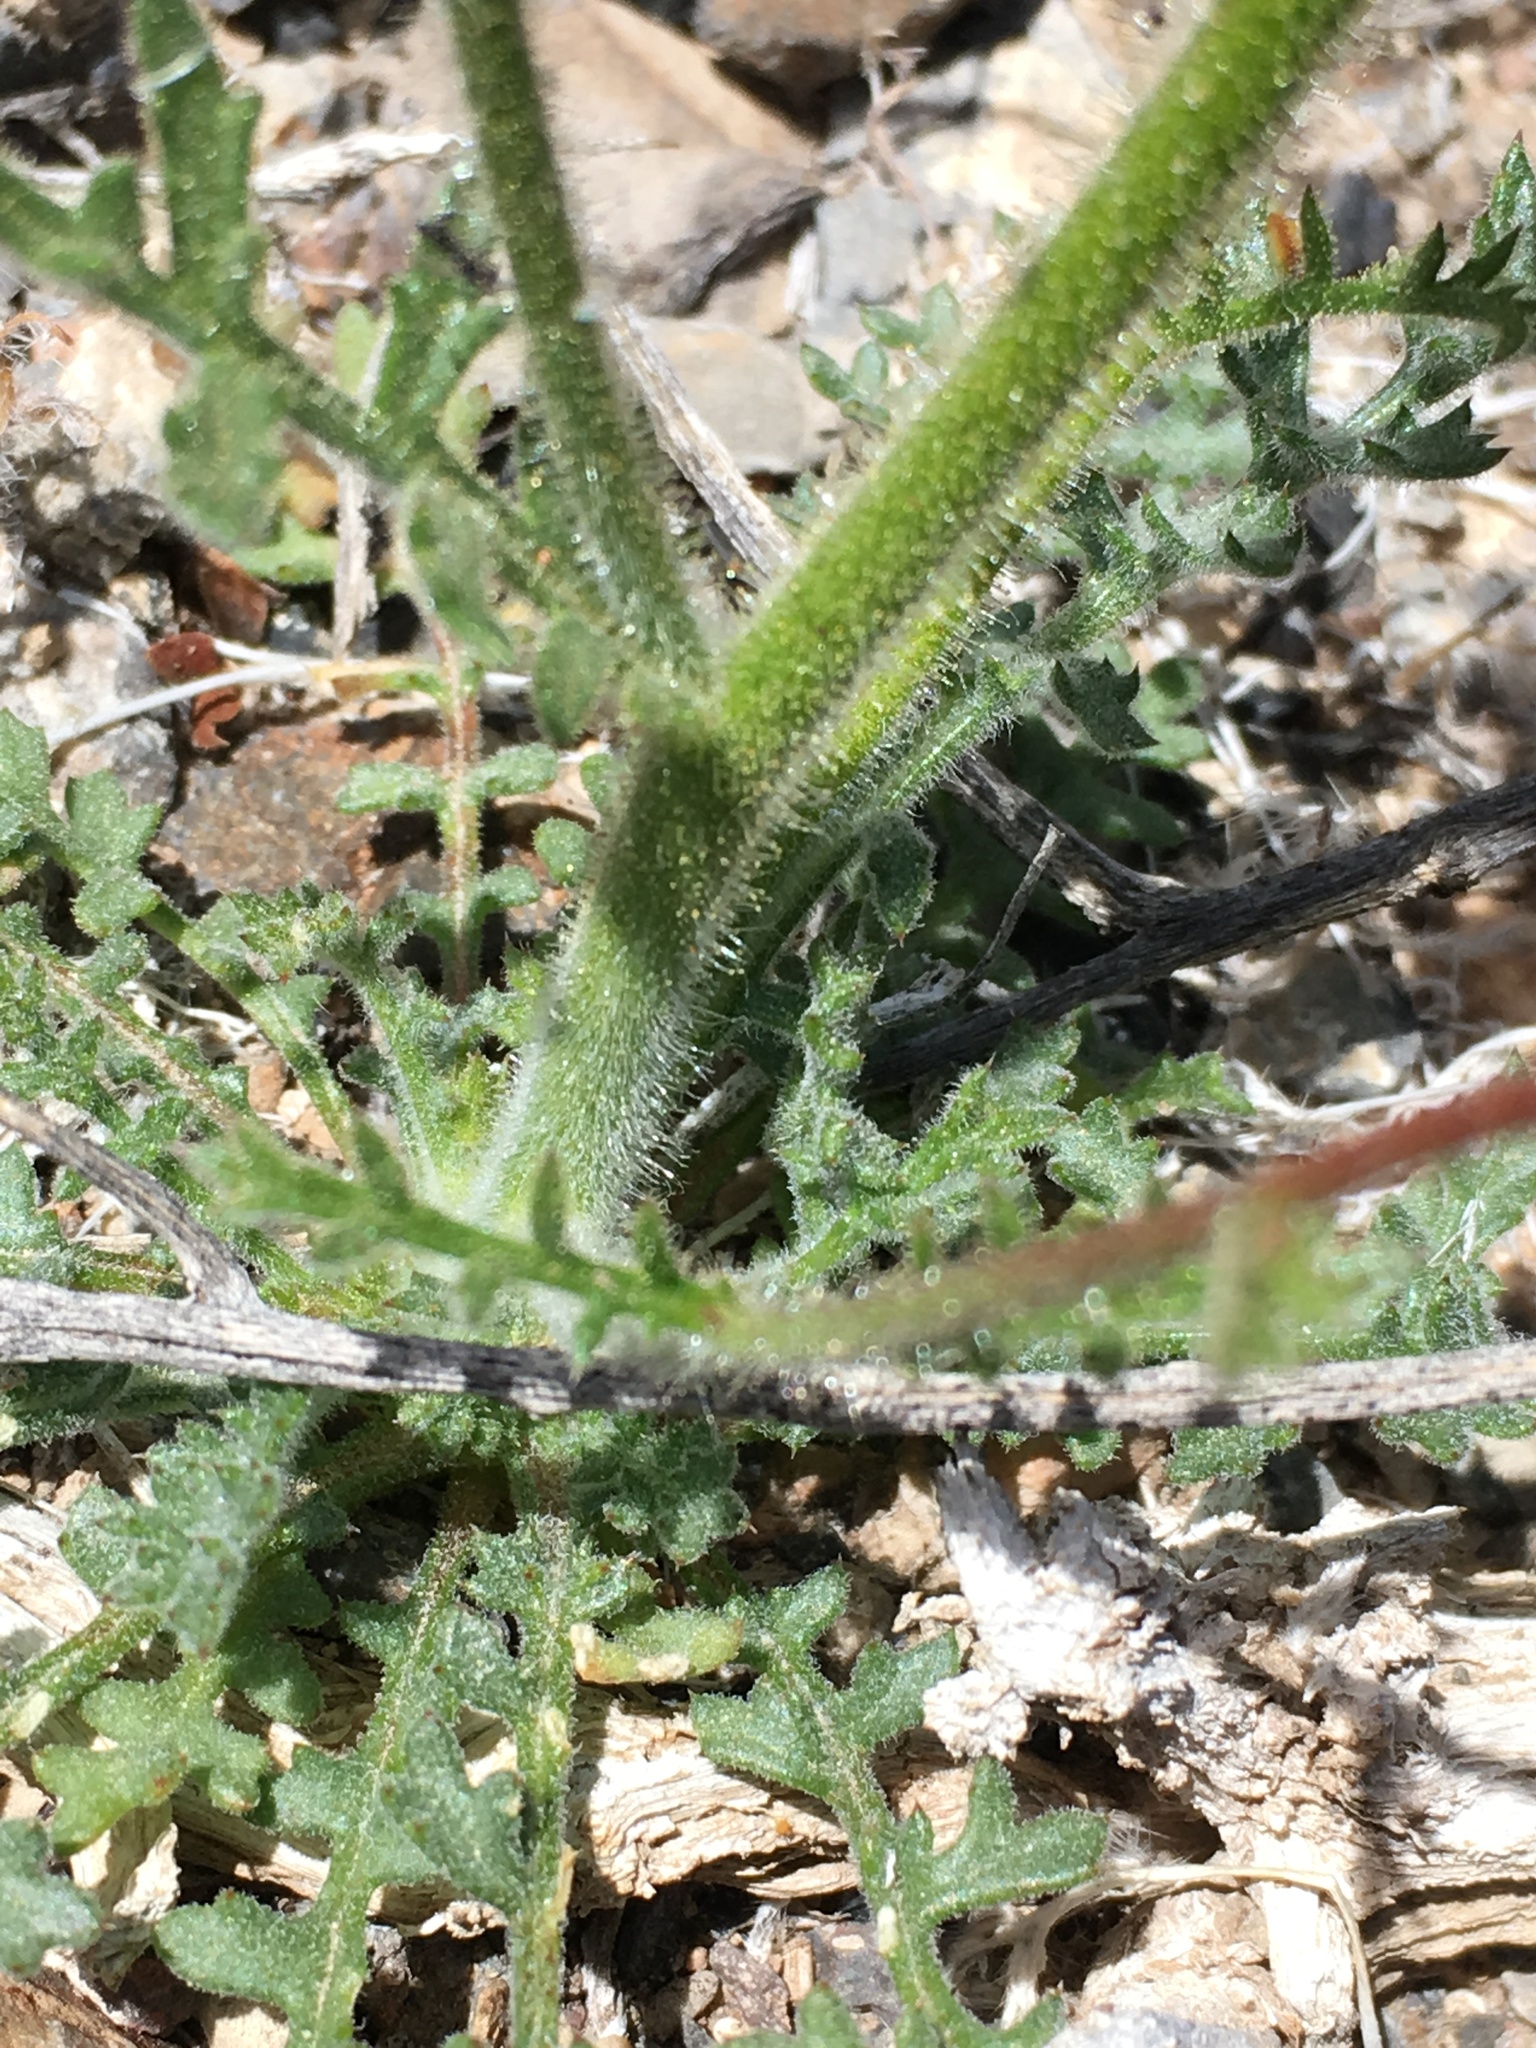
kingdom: Plantae
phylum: Tracheophyta
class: Magnoliopsida
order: Ericales
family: Polemoniaceae
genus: Gilia
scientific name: Gilia stellata
